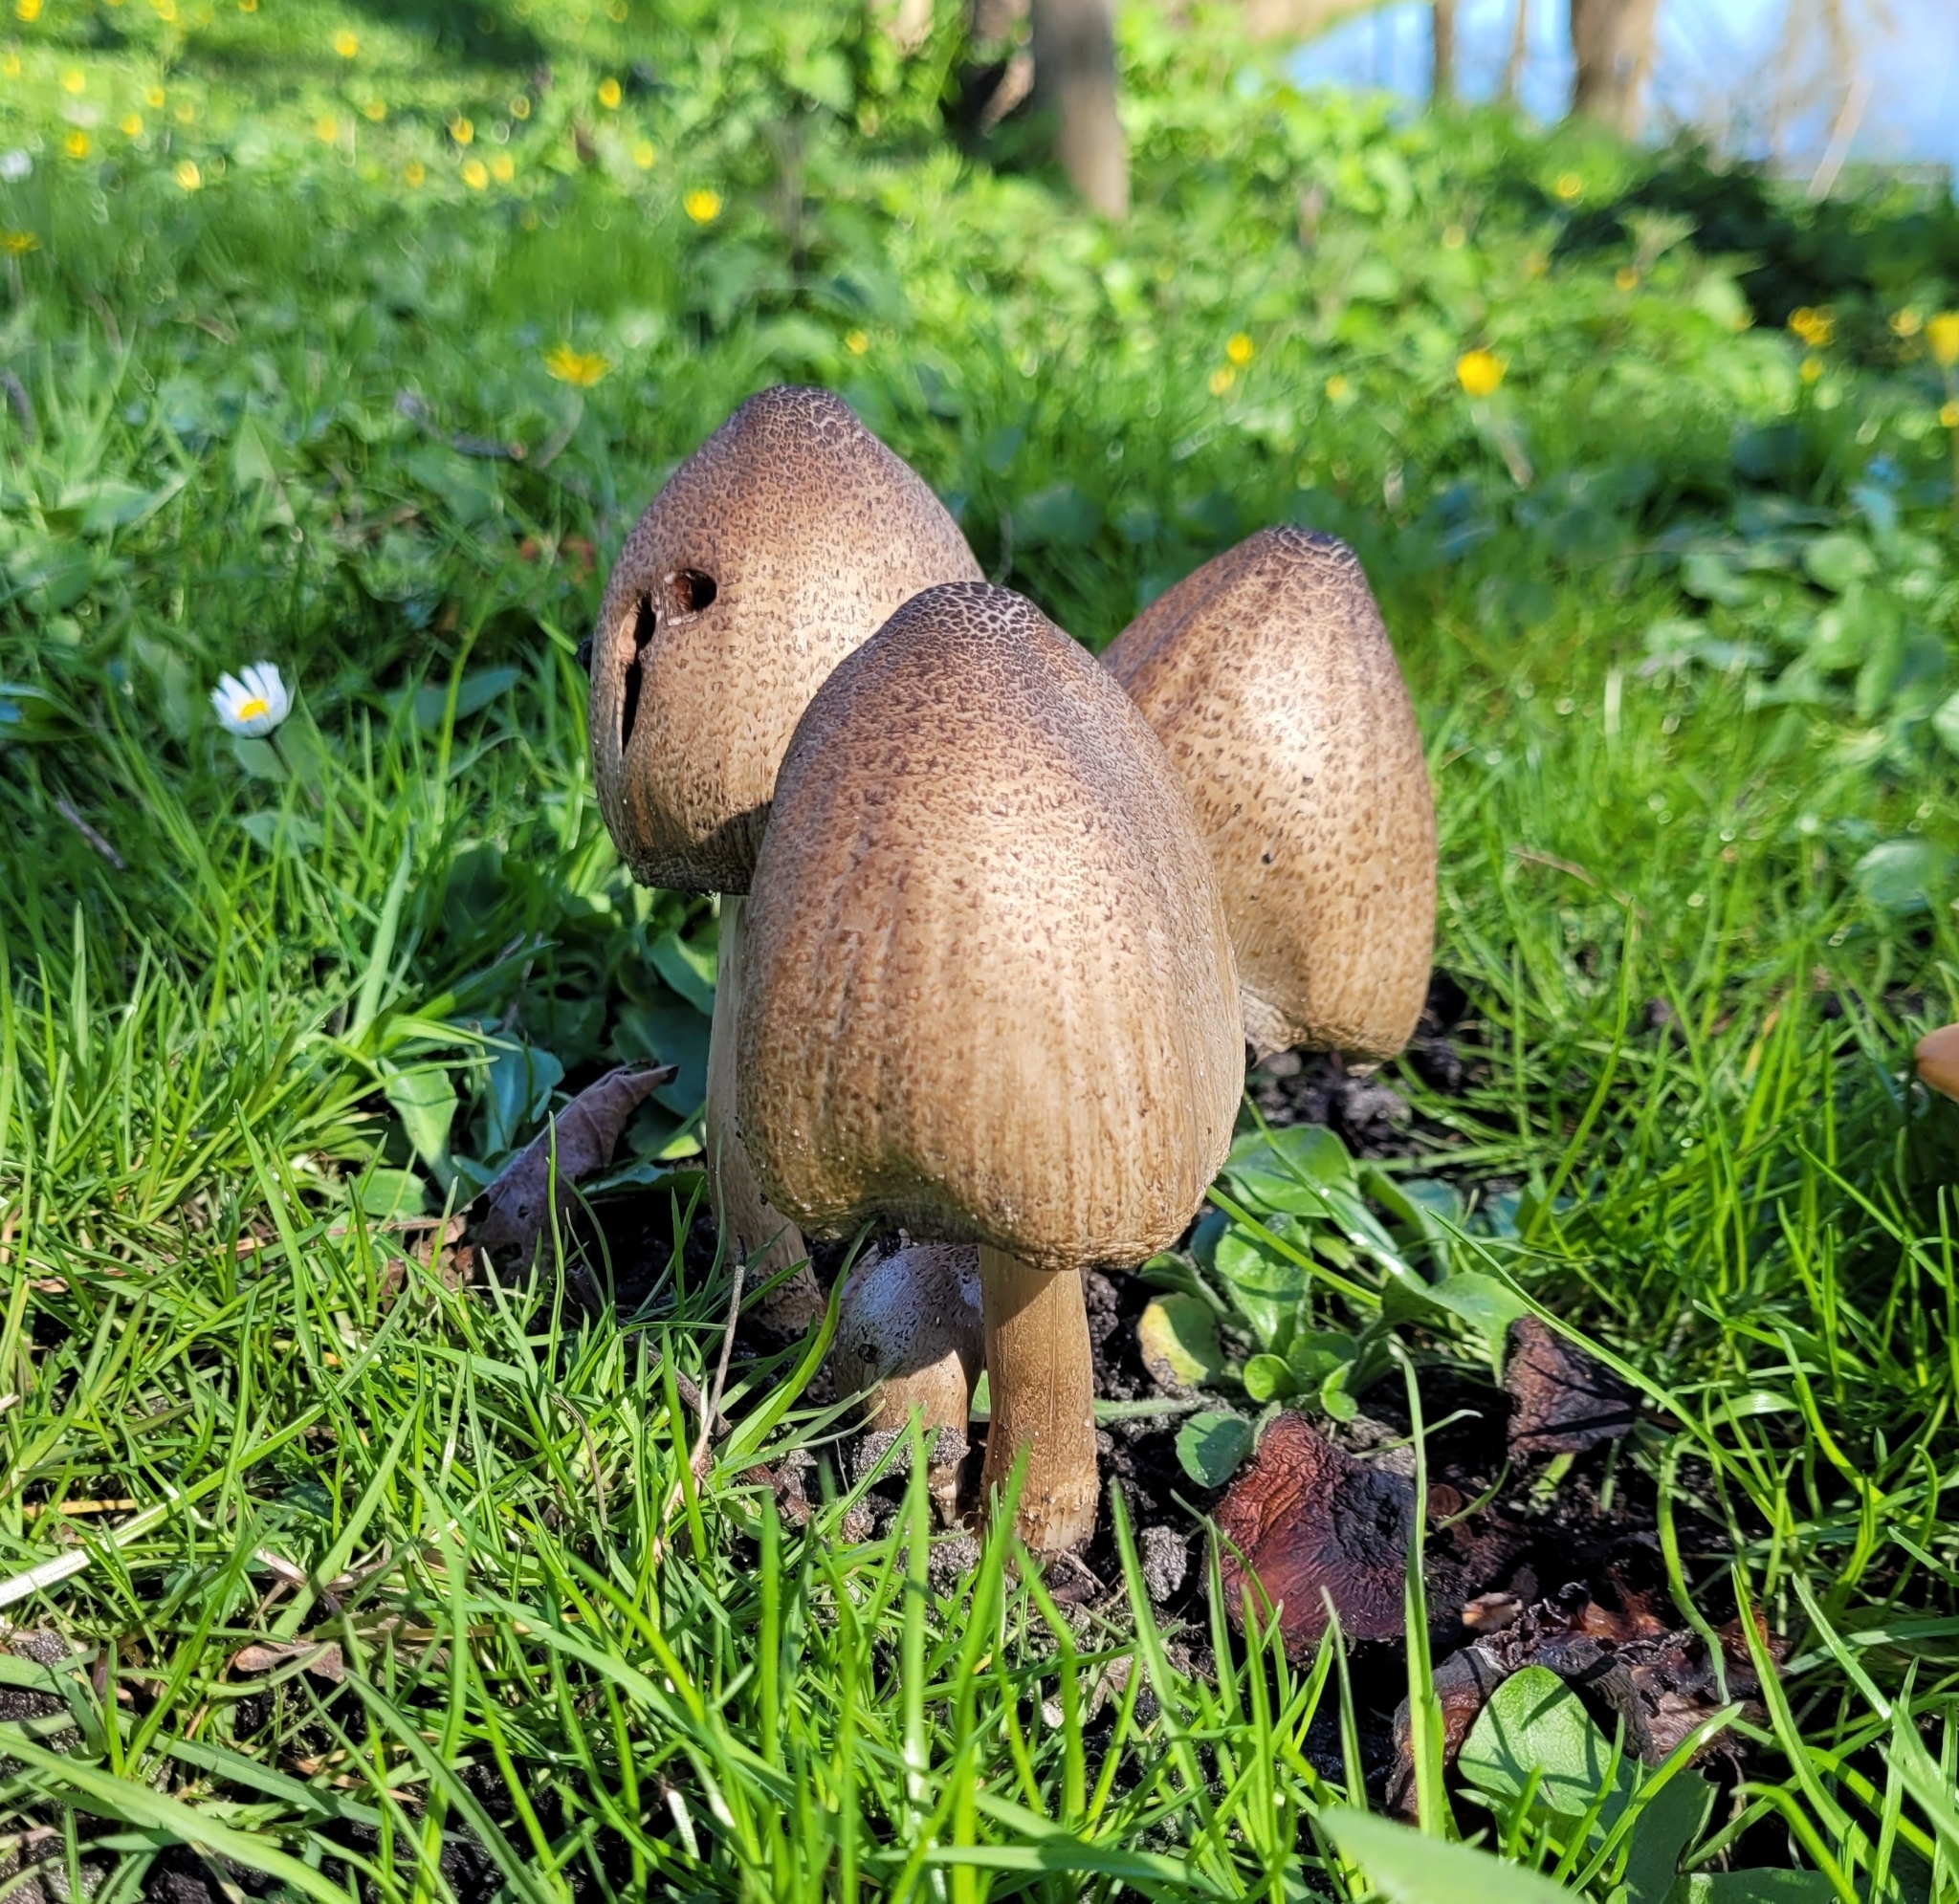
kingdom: Fungi
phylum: Basidiomycota
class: Agaricomycetes
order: Agaricales
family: Psathyrellaceae
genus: Coprinopsis
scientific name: Coprinopsis atramentaria
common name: Common ink-cap
